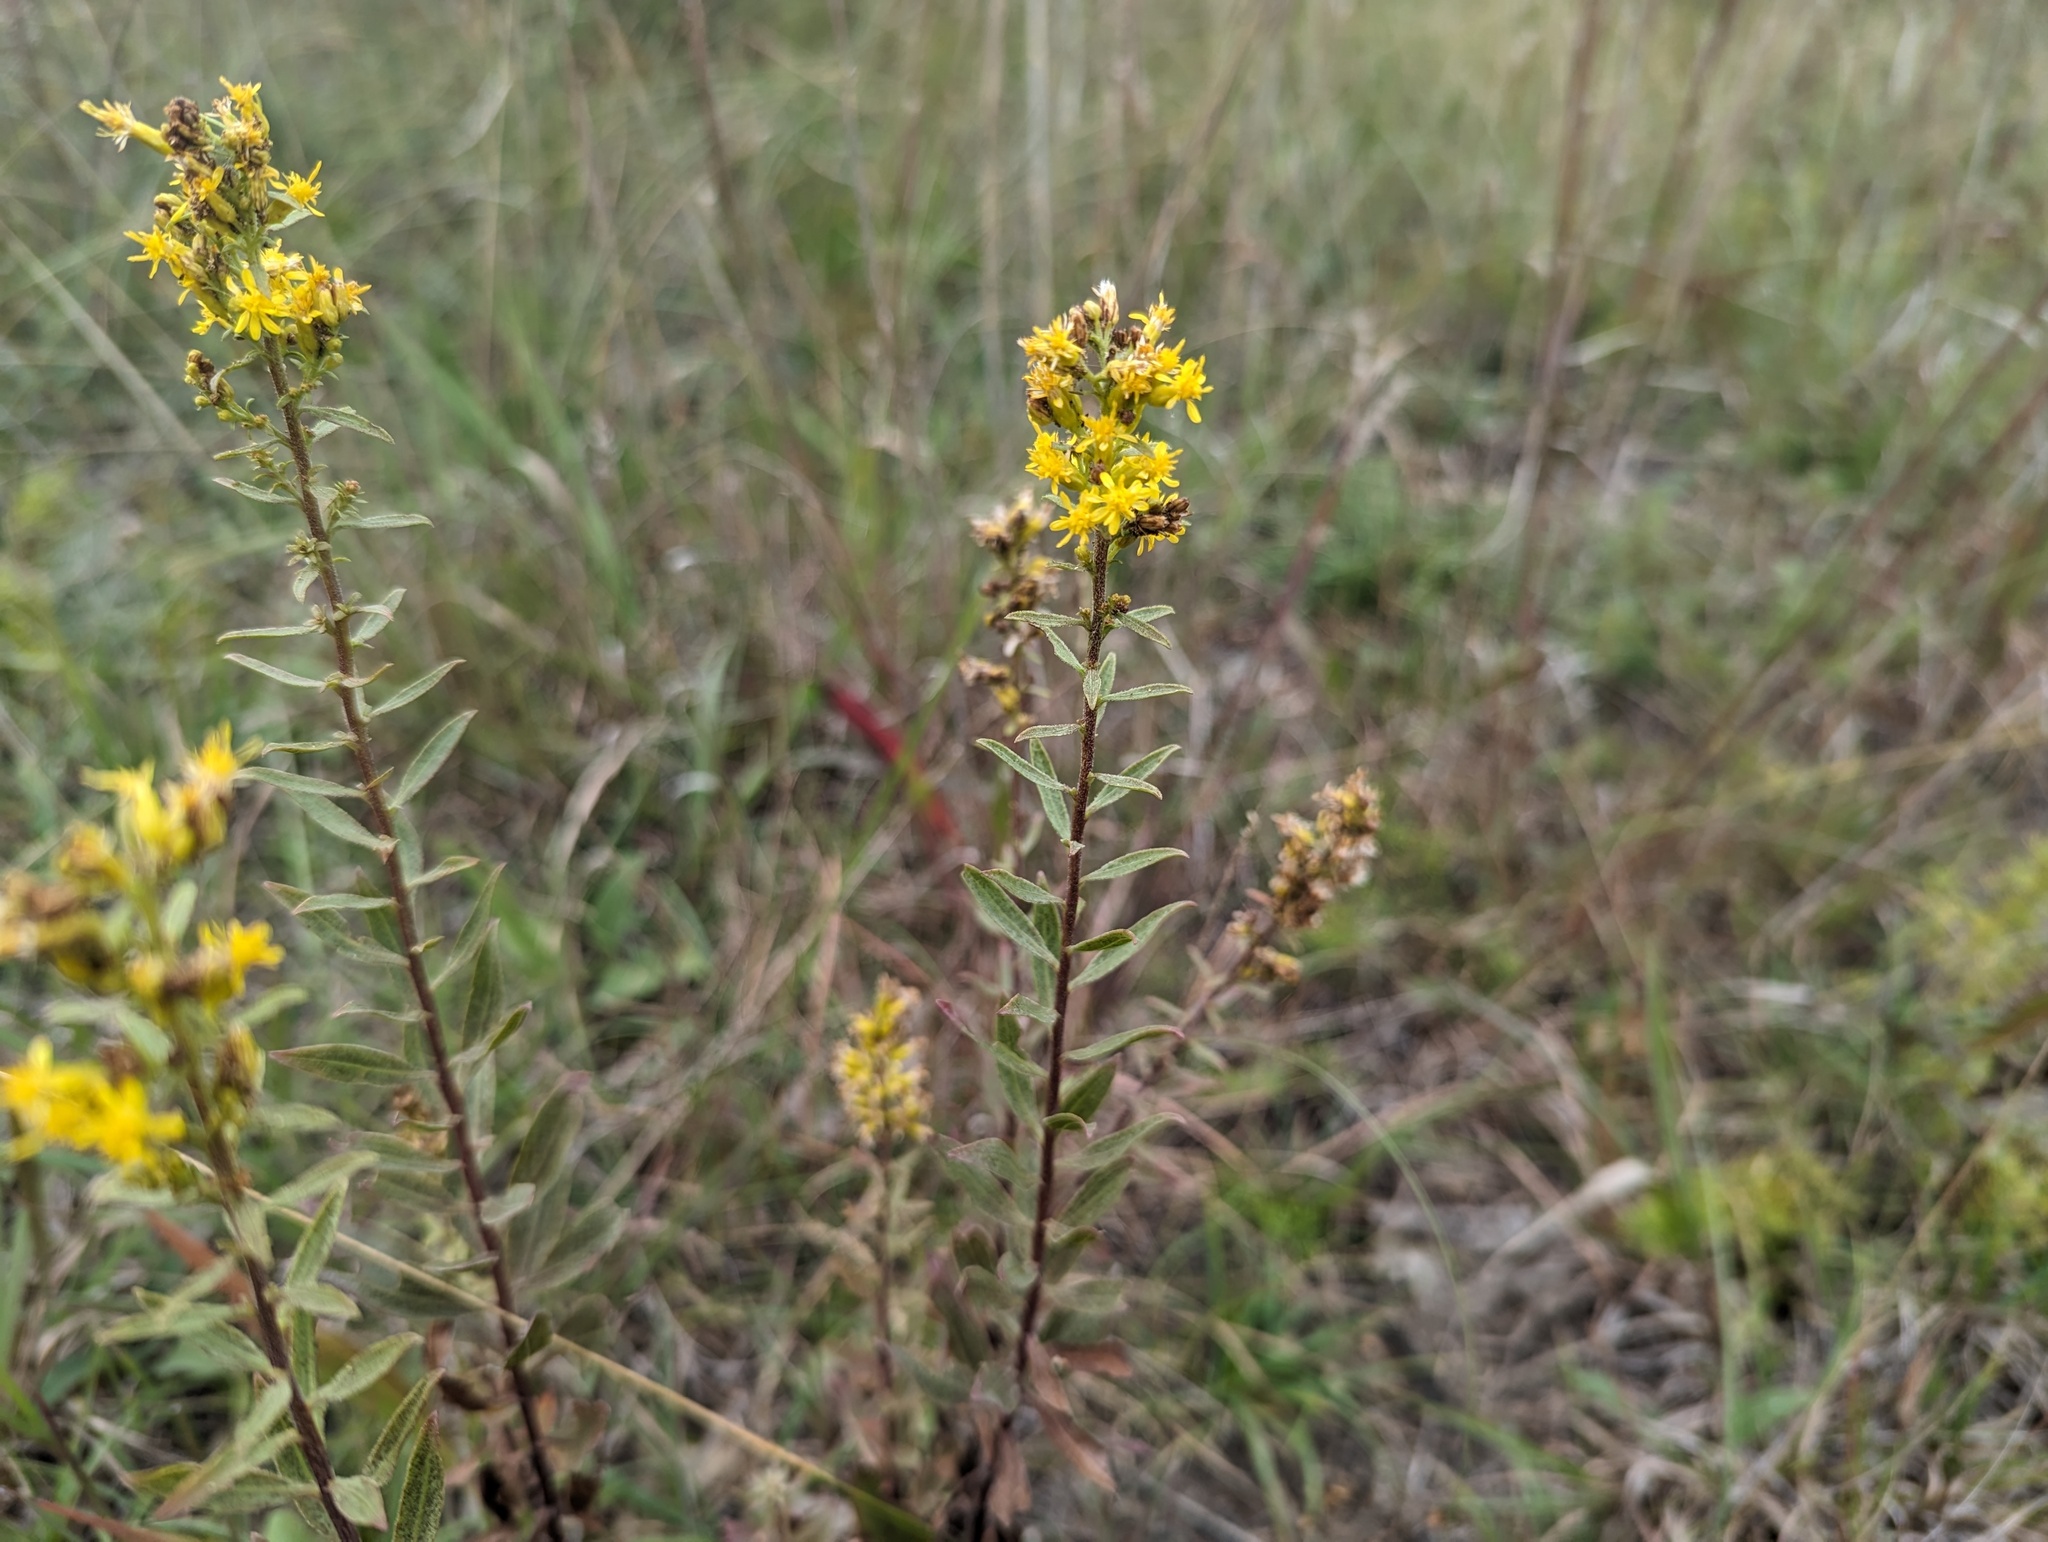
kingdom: Plantae
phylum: Tracheophyta
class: Magnoliopsida
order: Asterales
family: Asteraceae
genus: Solidago
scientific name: Solidago rigidiuscula
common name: Stiff-leaved showy goldenrod
